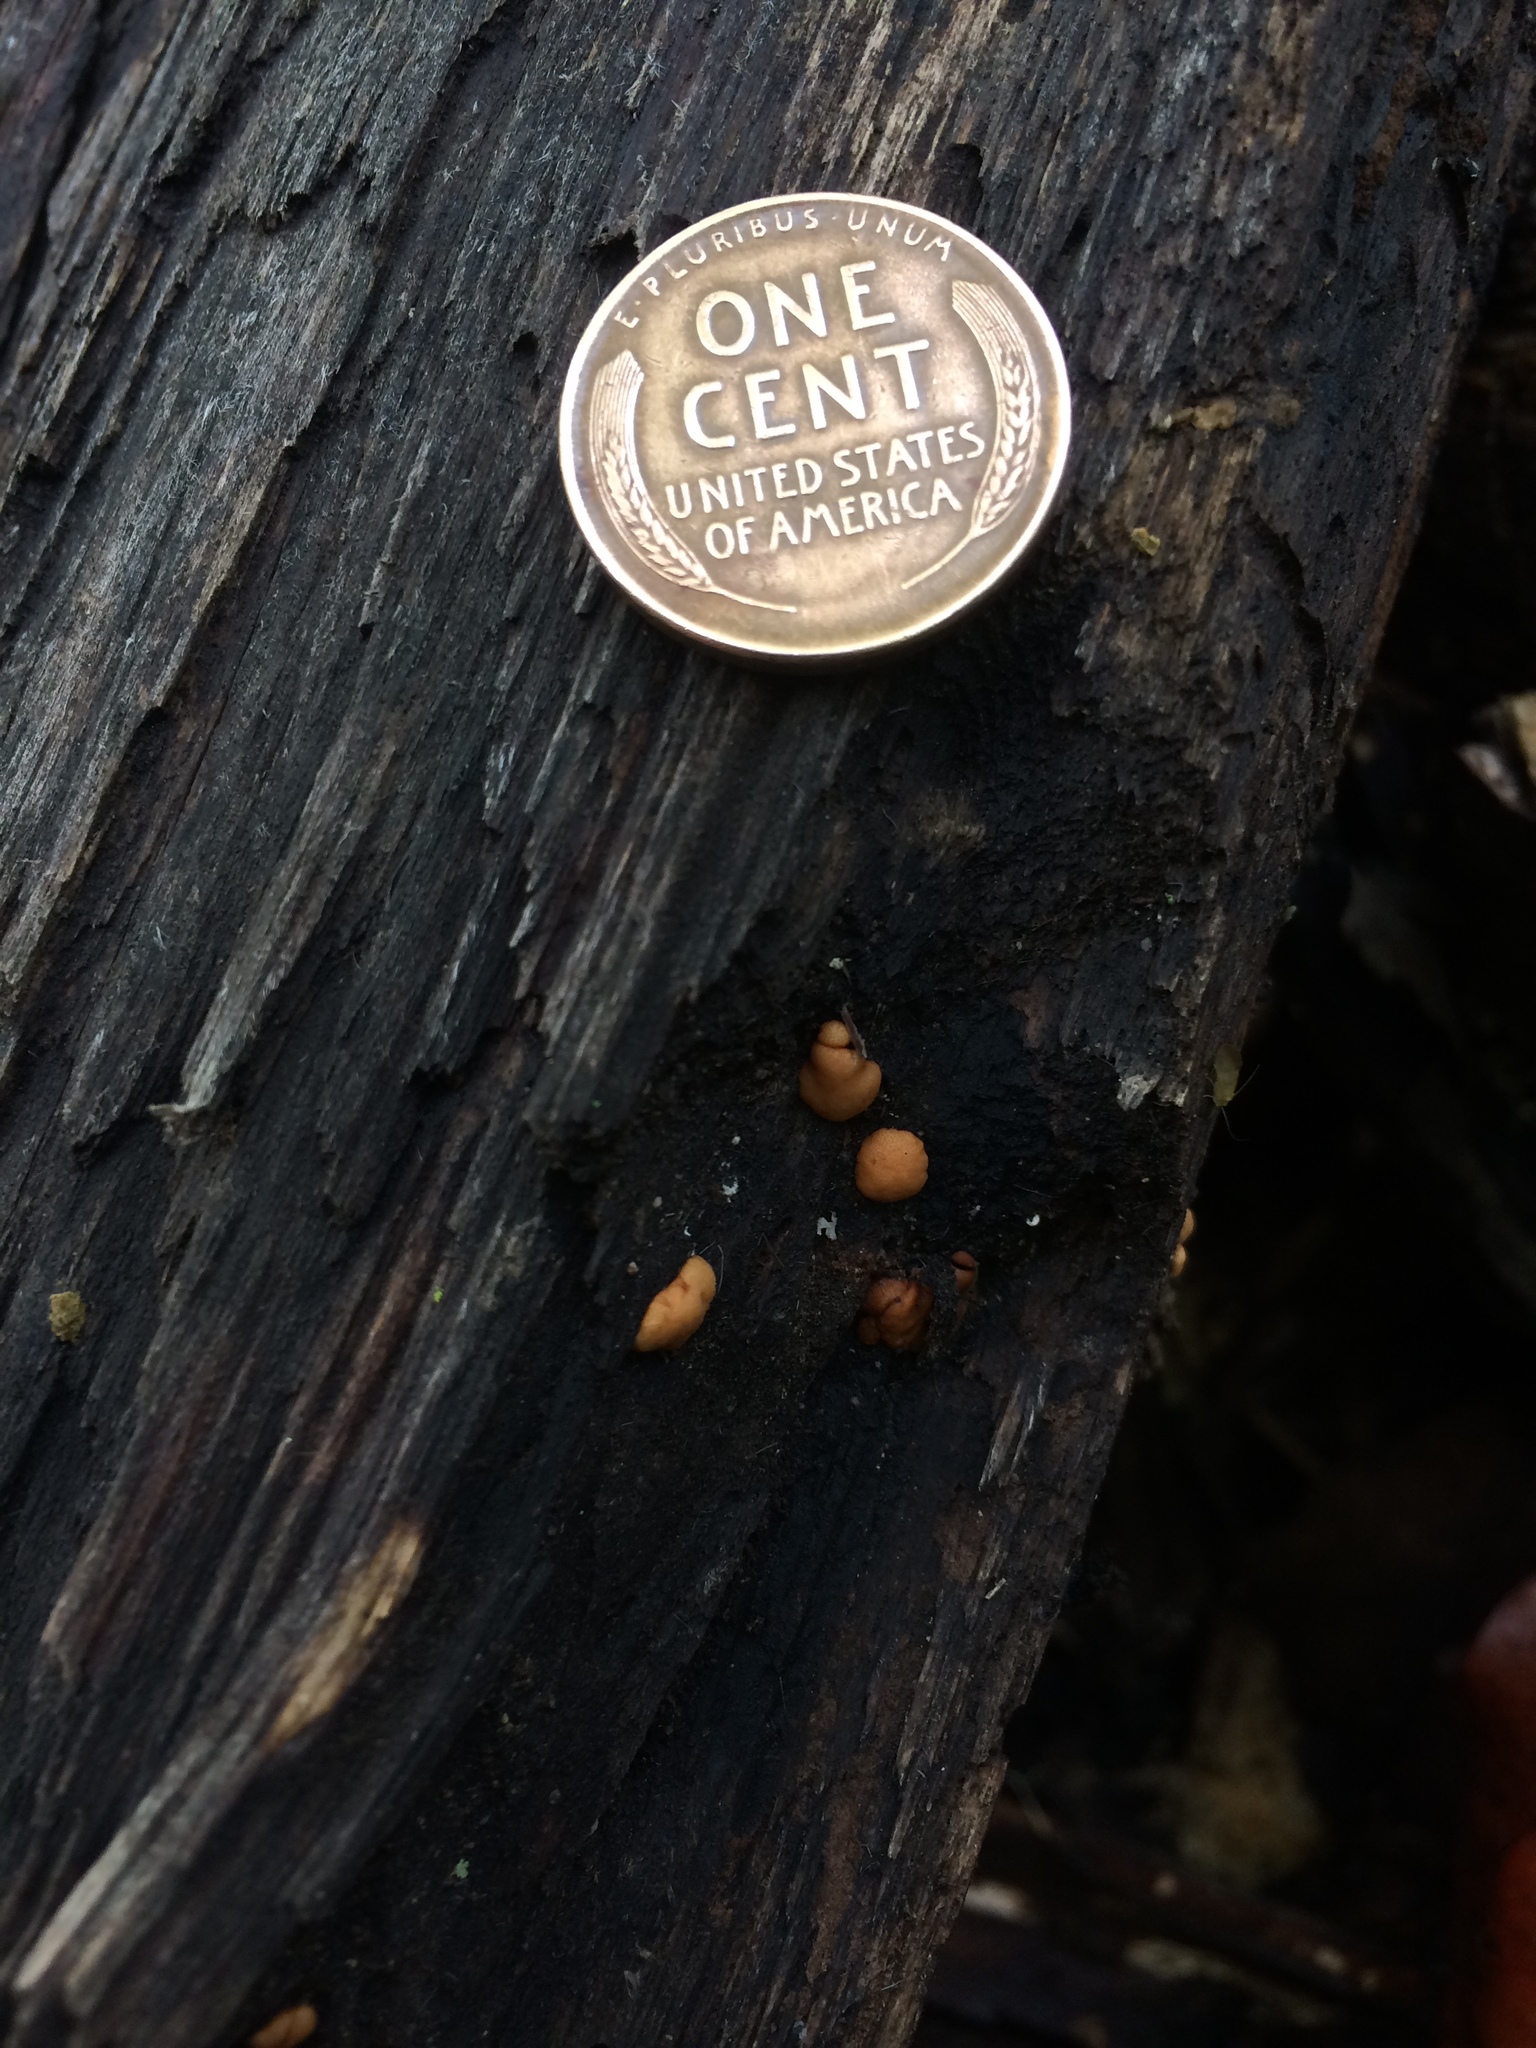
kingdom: Protozoa
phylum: Mycetozoa
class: Myxomycetes
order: Cribrariales
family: Tubiferaceae
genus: Lycogala
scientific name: Lycogala epidendrum
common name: Wolf's milk
